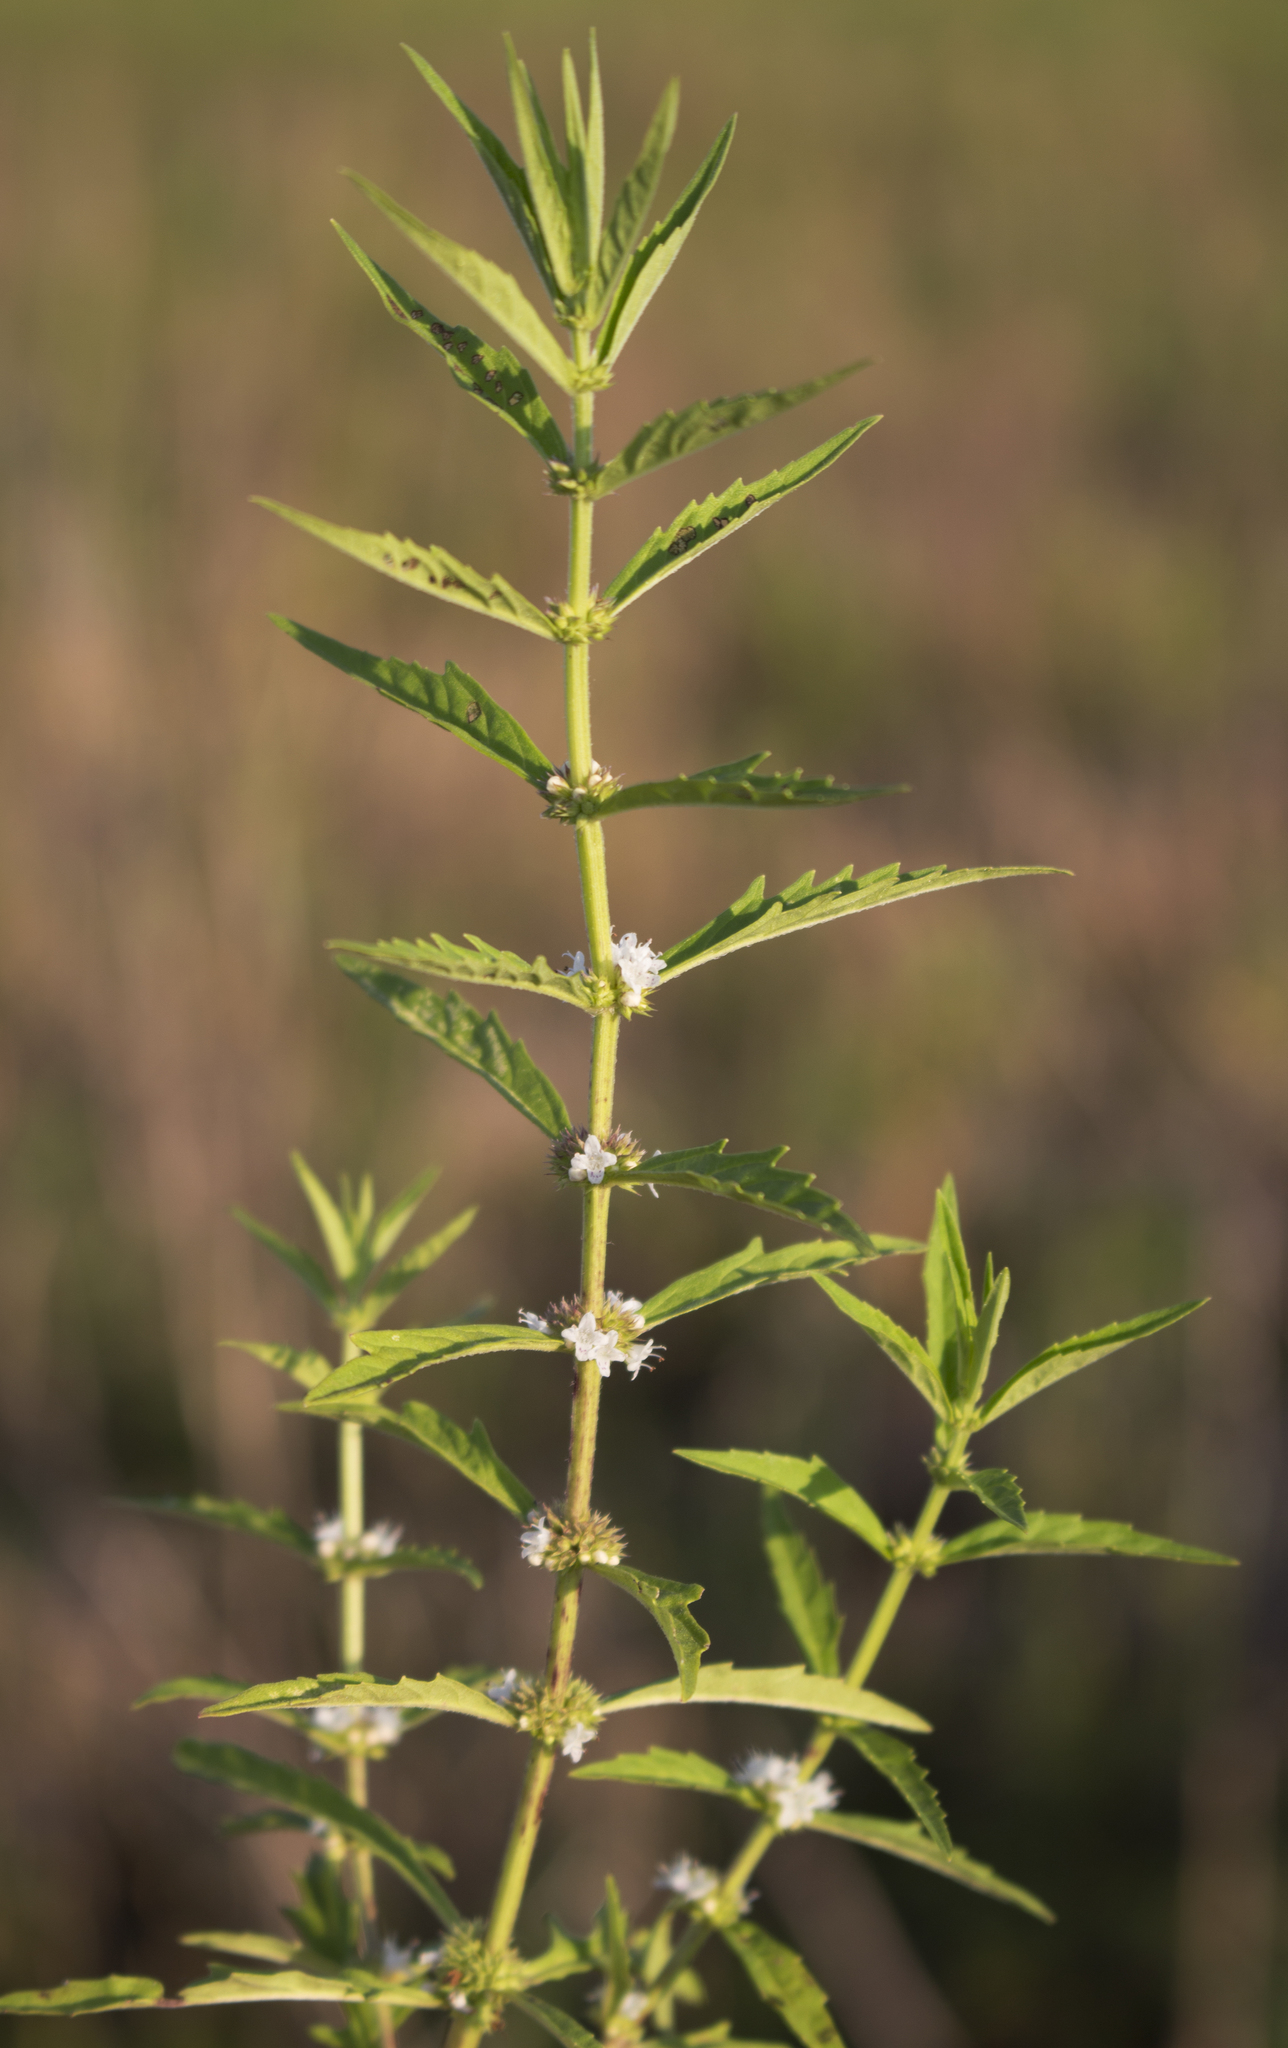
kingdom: Plantae
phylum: Tracheophyta
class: Magnoliopsida
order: Lamiales
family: Lamiaceae
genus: Lycopus
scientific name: Lycopus americanus
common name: American bugleweed
